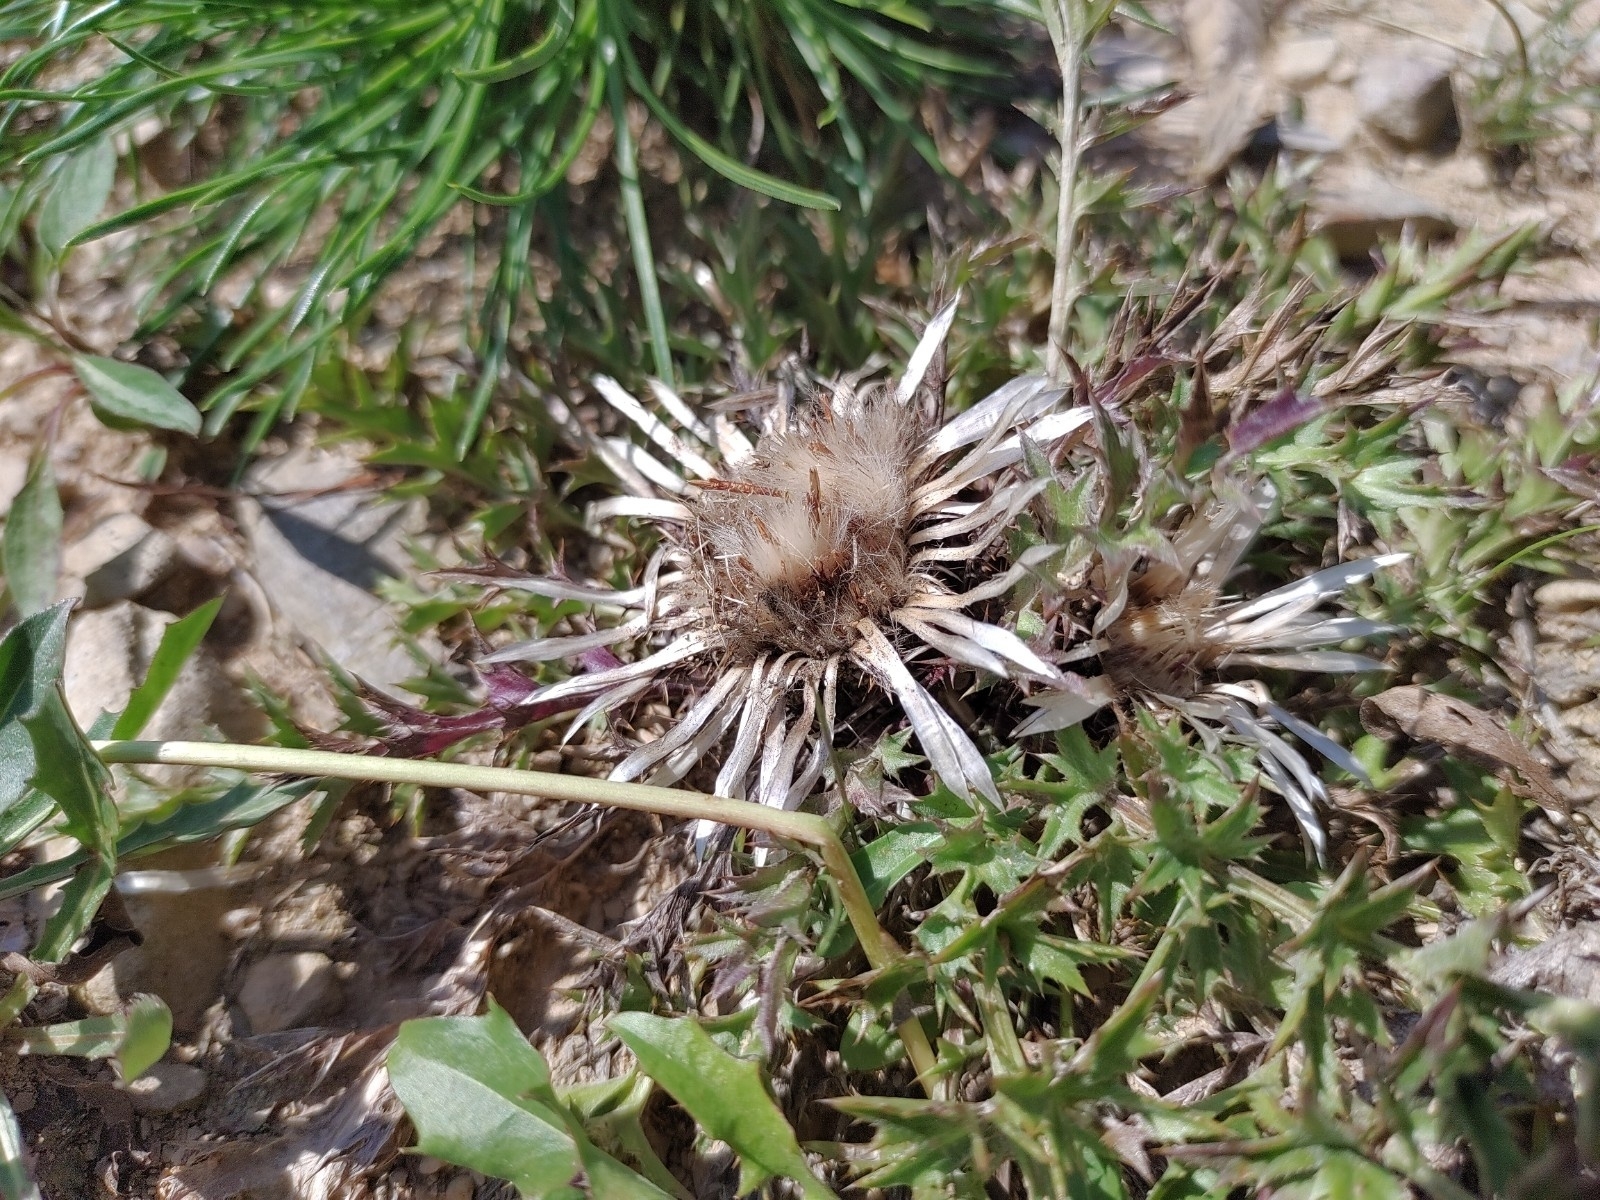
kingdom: Plantae
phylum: Tracheophyta
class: Magnoliopsida
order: Asterales
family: Asteraceae
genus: Carlina
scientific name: Carlina acaulis
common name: Stemless carline thistle
